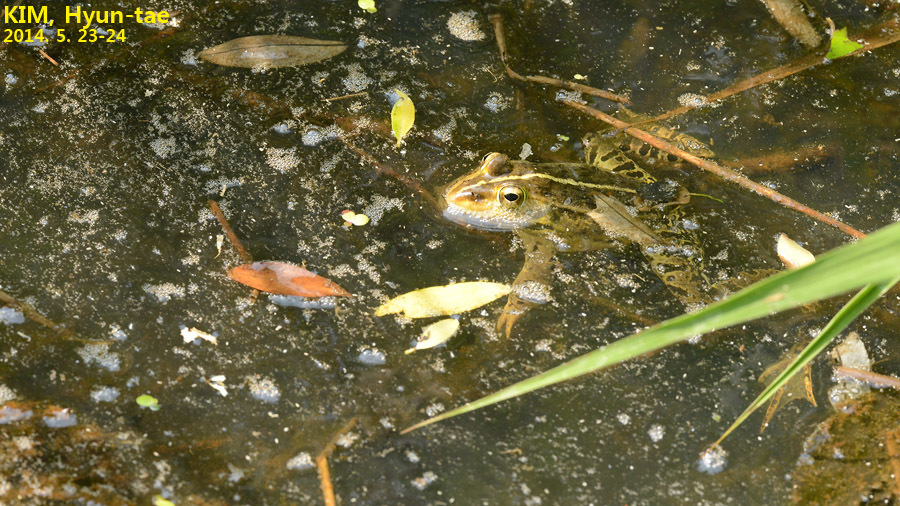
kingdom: Animalia
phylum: Chordata
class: Amphibia
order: Anura
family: Ranidae
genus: Pelophylax
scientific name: Pelophylax nigromaculatus
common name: Black-spotted pond frog
